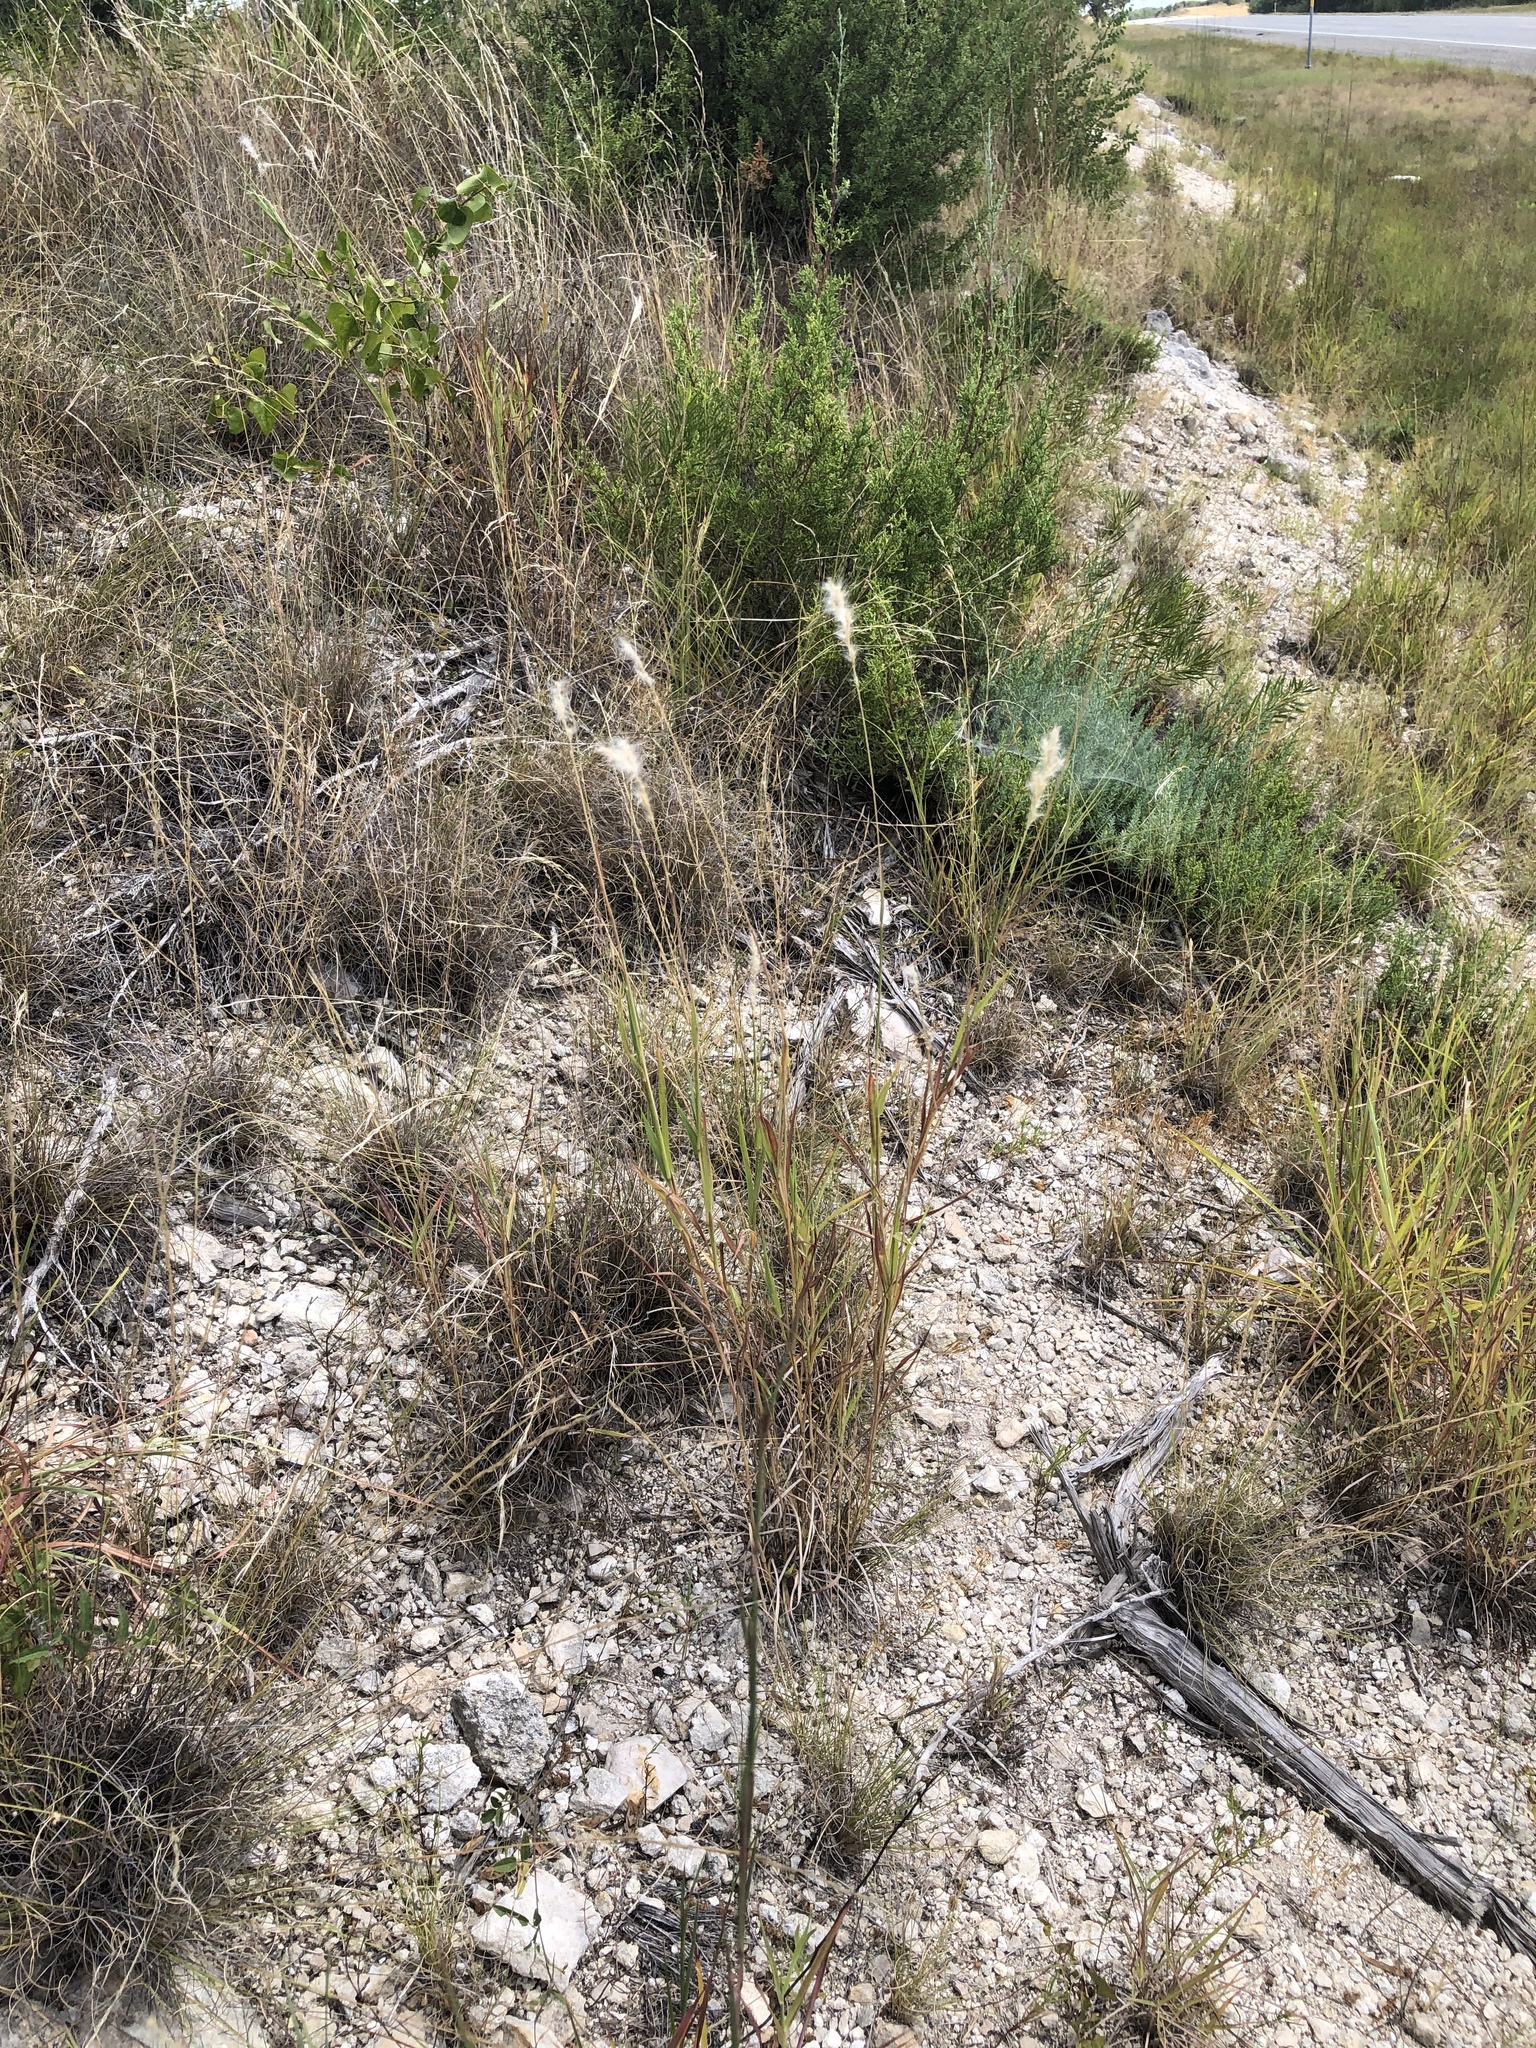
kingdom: Plantae
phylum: Tracheophyta
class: Liliopsida
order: Poales
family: Poaceae
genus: Bothriochloa
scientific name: Bothriochloa torreyana
